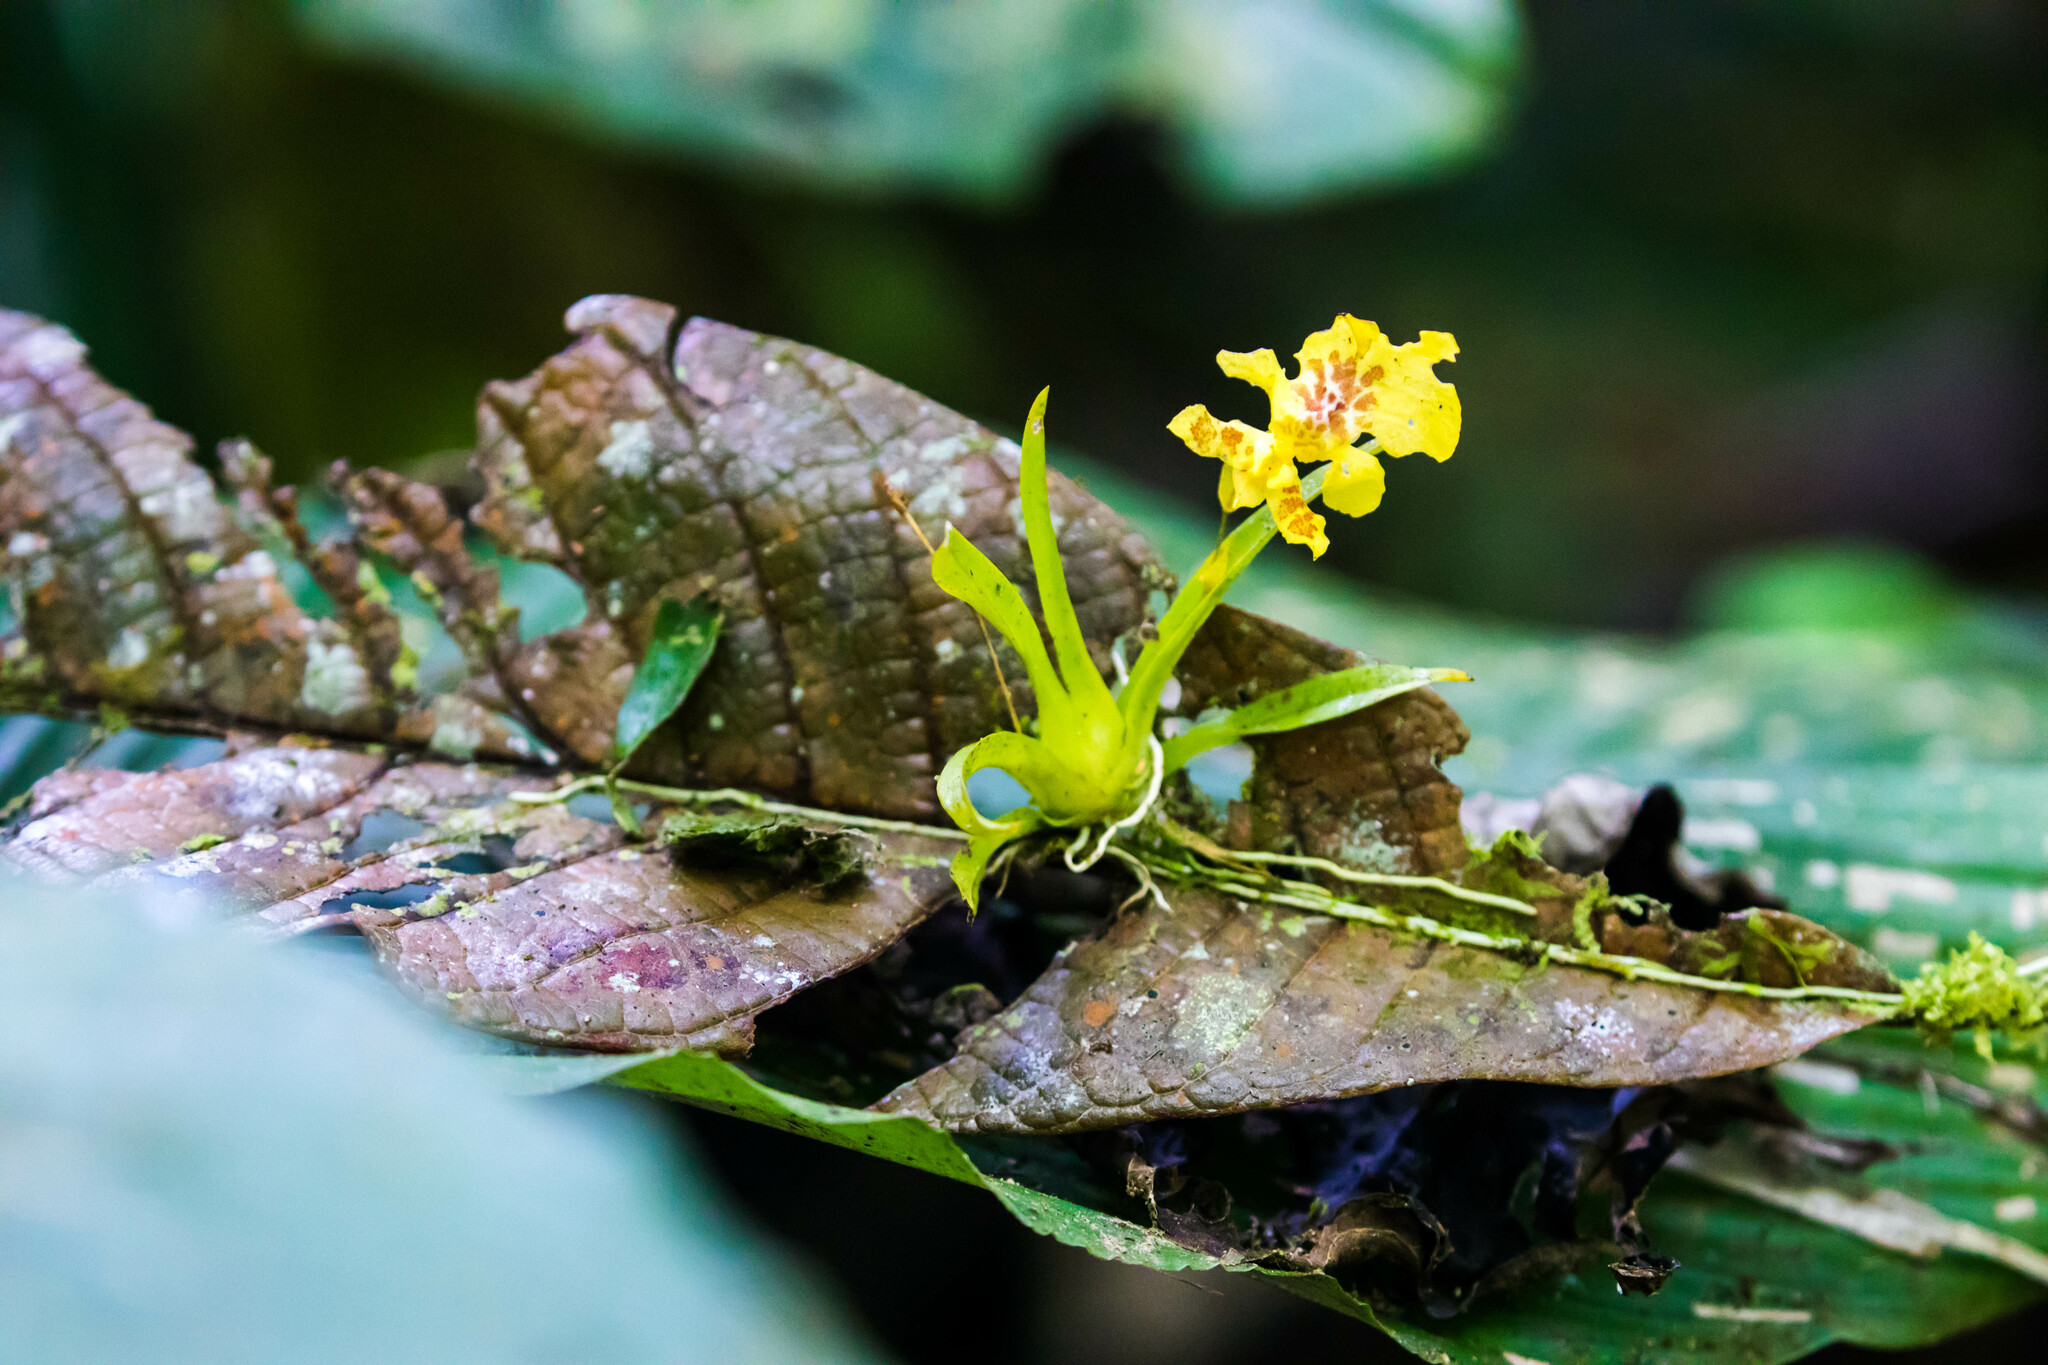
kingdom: Plantae
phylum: Tracheophyta
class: Liliopsida
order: Asparagales
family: Orchidaceae
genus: Erycina
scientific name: Erycina crista-galli
